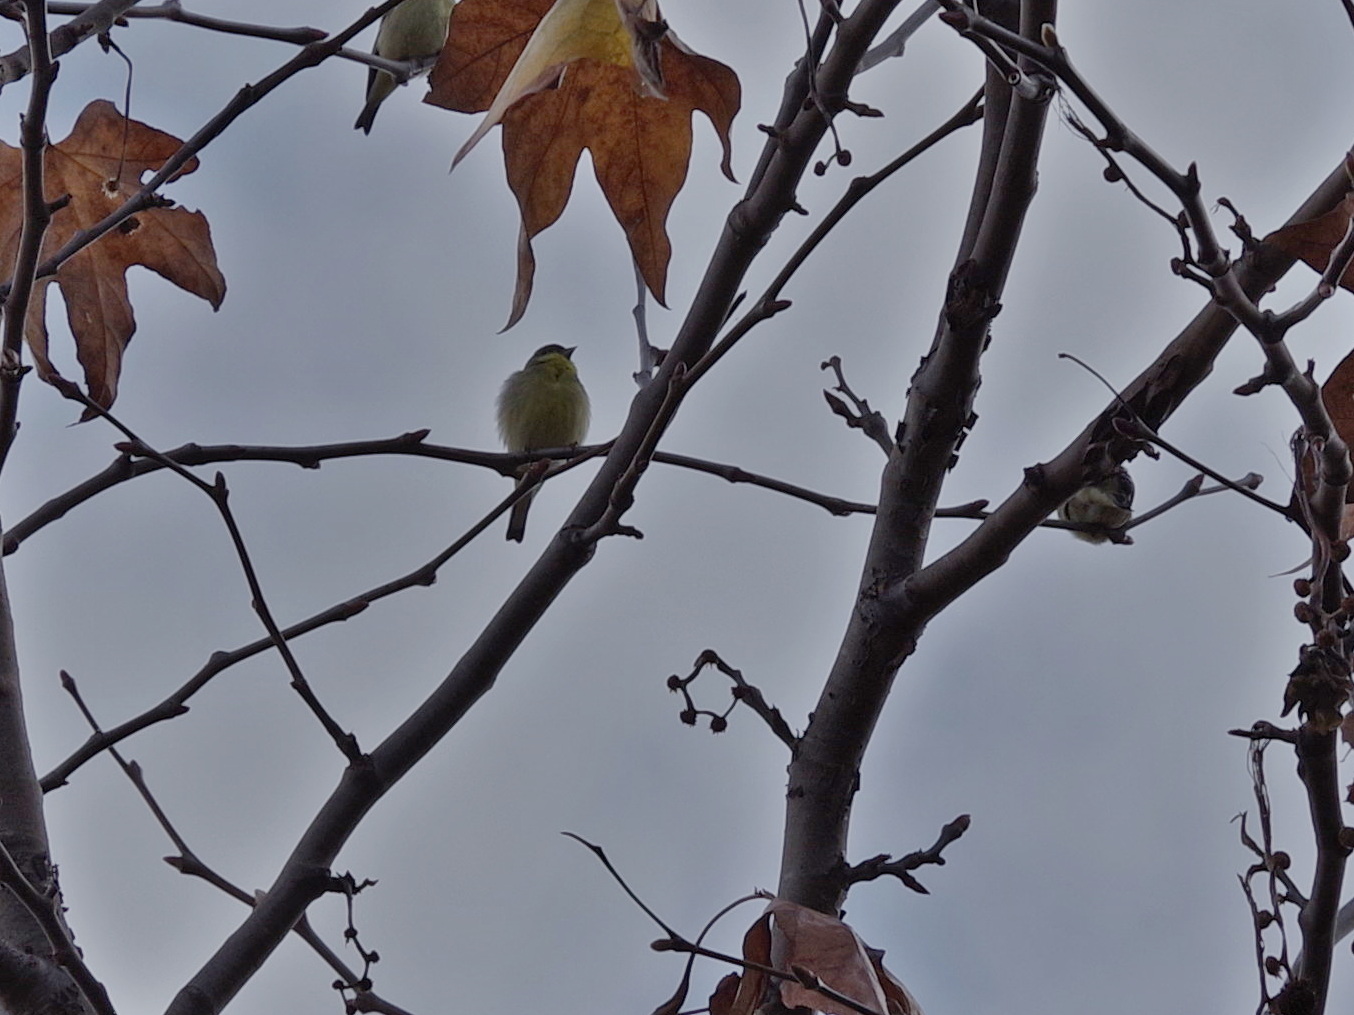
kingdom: Animalia
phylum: Chordata
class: Aves
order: Passeriformes
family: Fringillidae
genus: Spinus
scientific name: Spinus psaltria
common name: Lesser goldfinch
